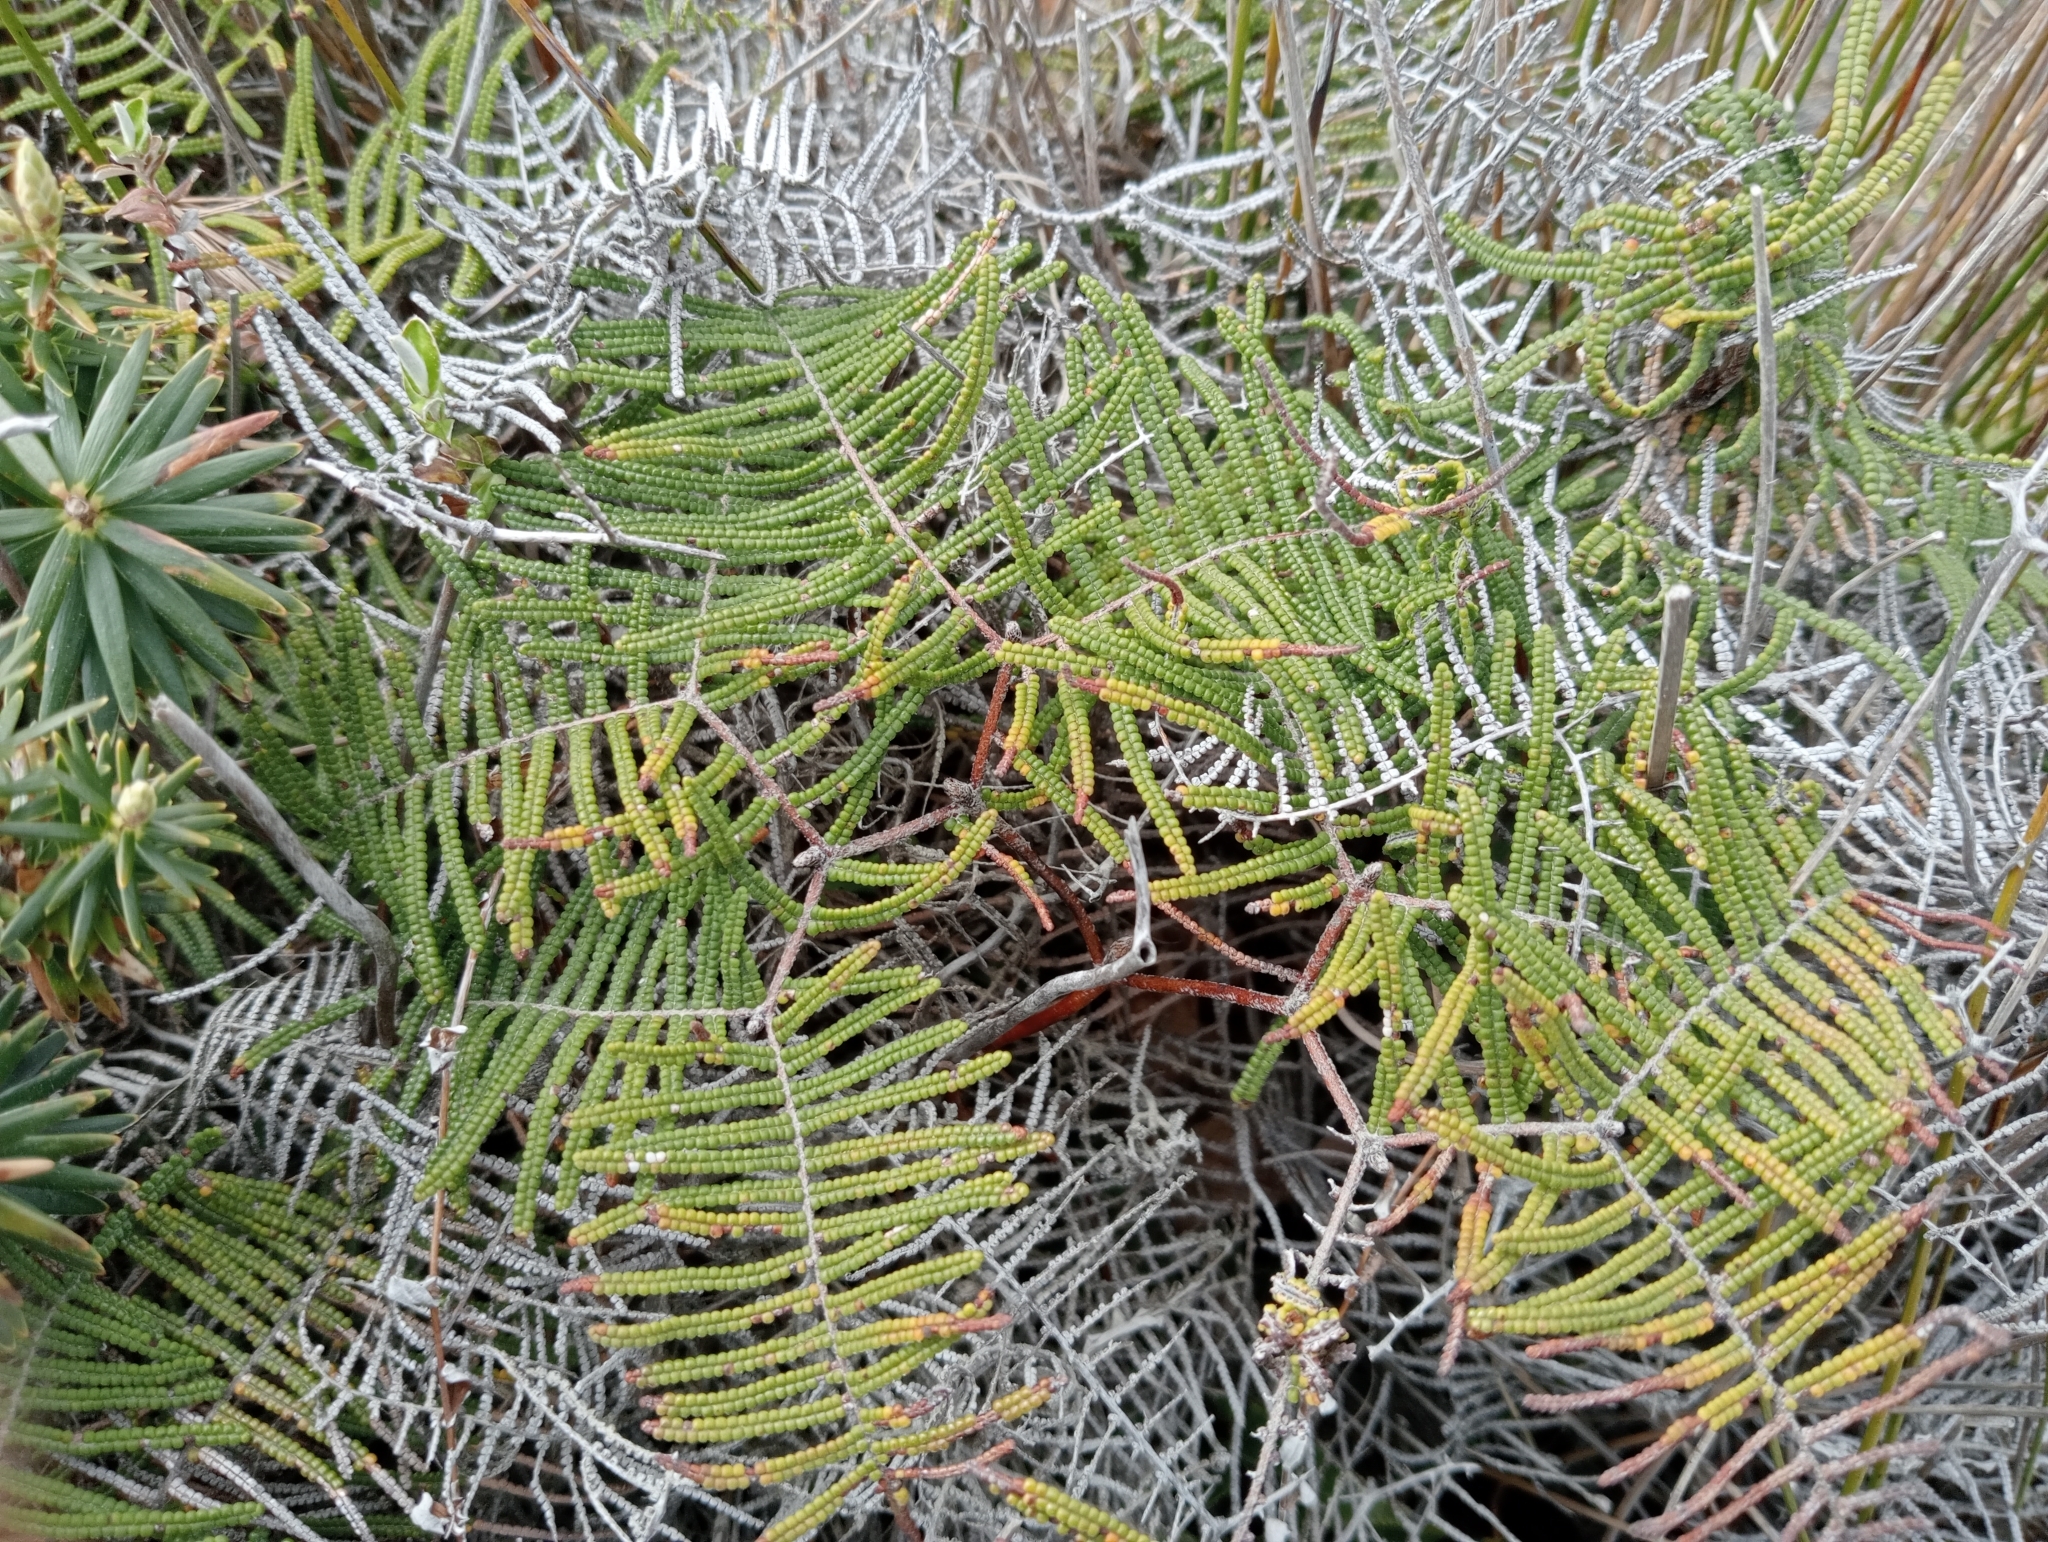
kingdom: Plantae
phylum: Tracheophyta
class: Polypodiopsida
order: Gleicheniales
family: Gleicheniaceae
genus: Gleichenia
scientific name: Gleichenia dicarpa
